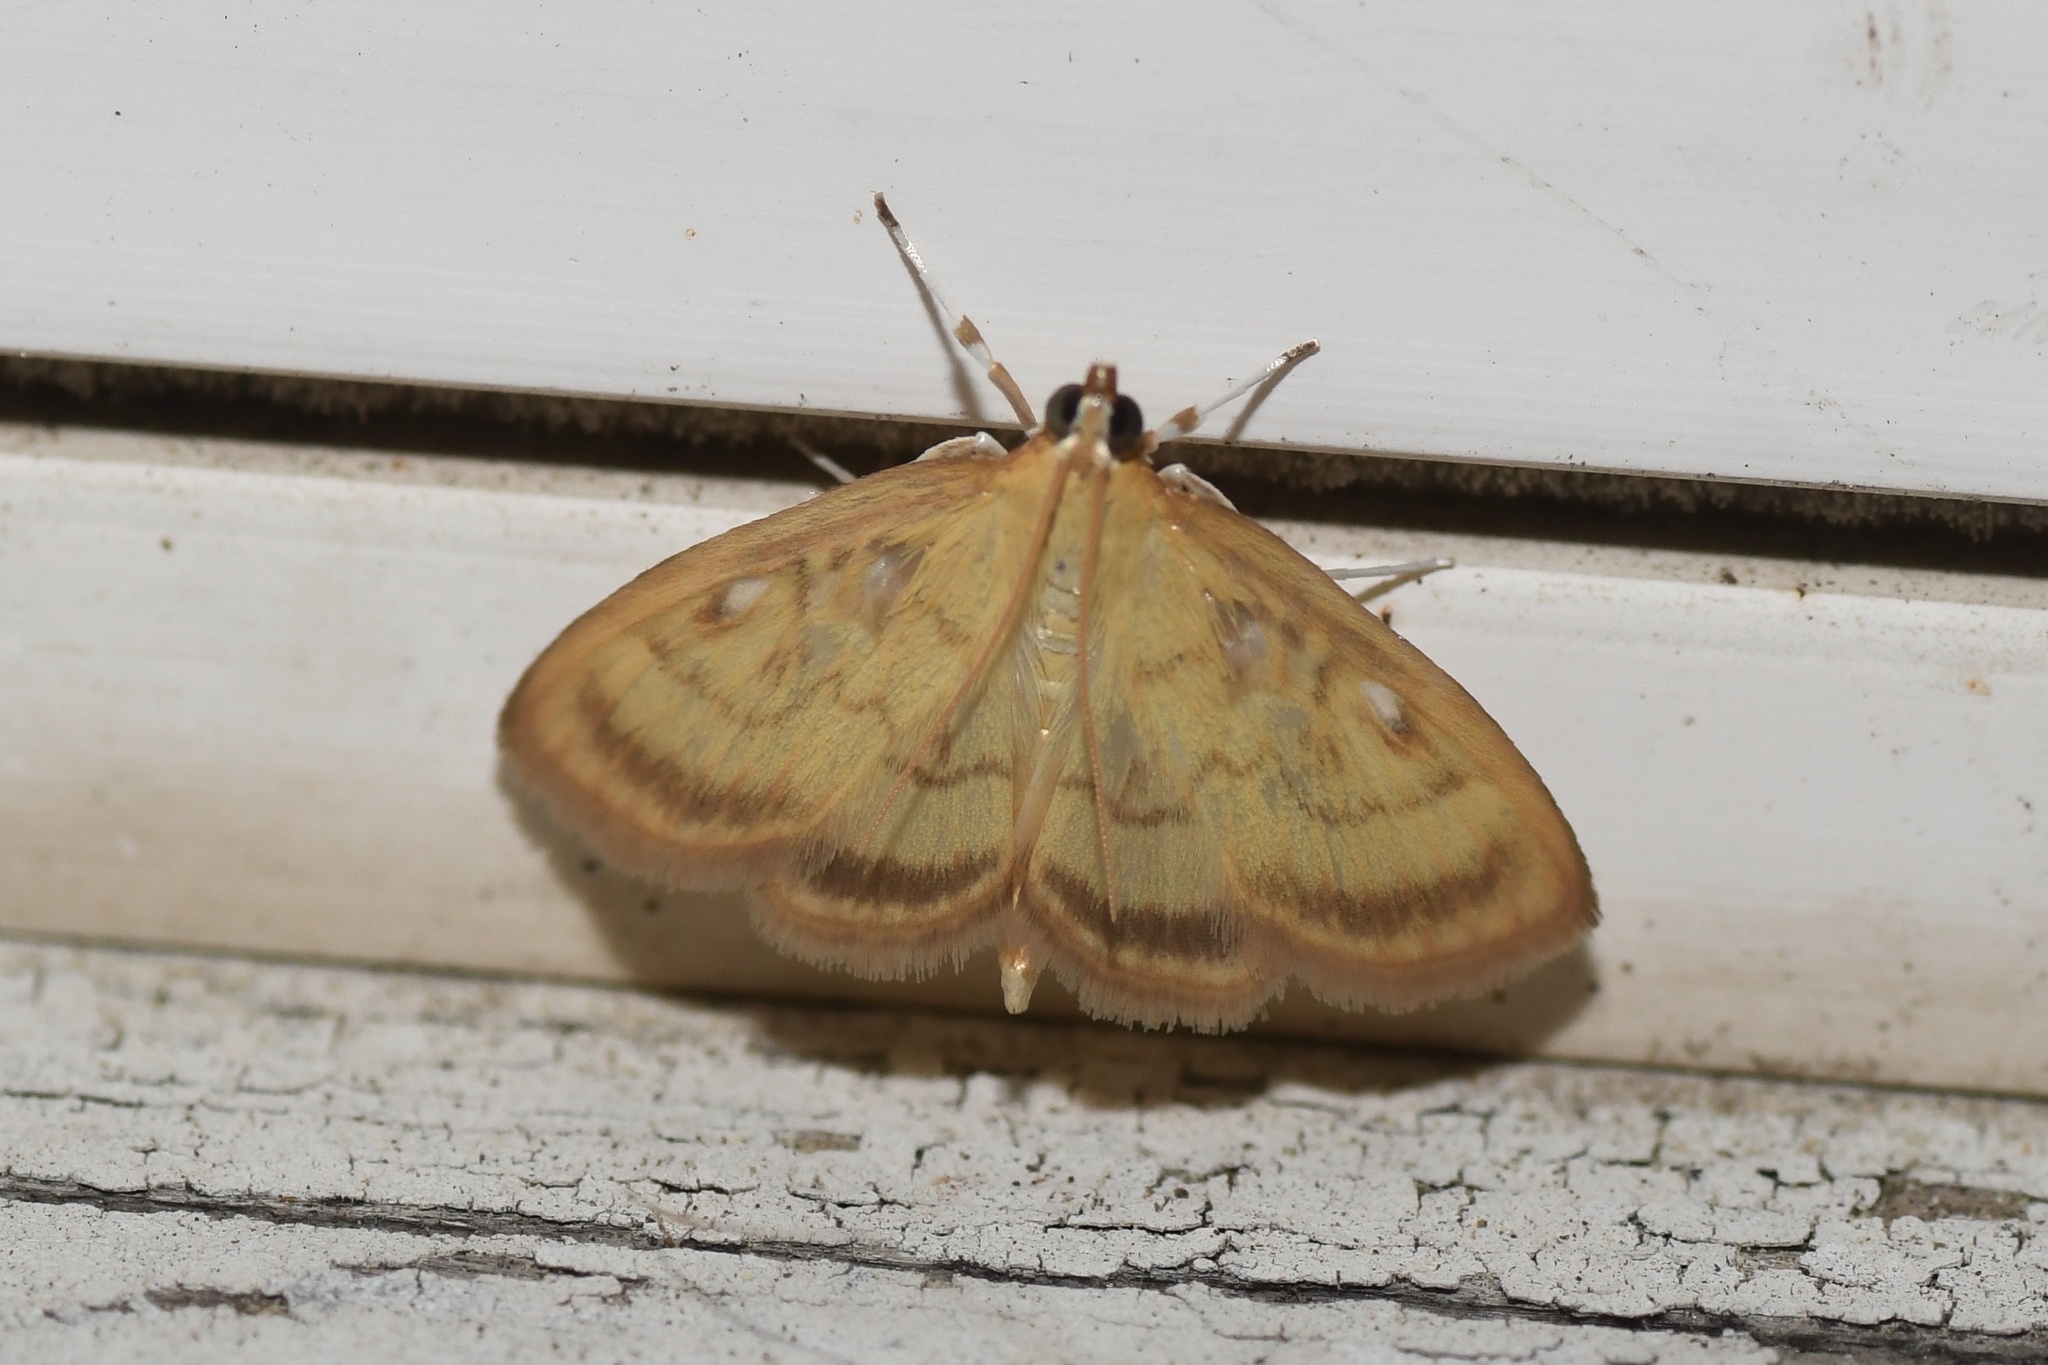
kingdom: Animalia
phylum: Arthropoda
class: Insecta
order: Lepidoptera
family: Crambidae
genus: Crocidophora
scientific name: Crocidophora tuberculalis
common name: Pale-winged crocidiphora moth
